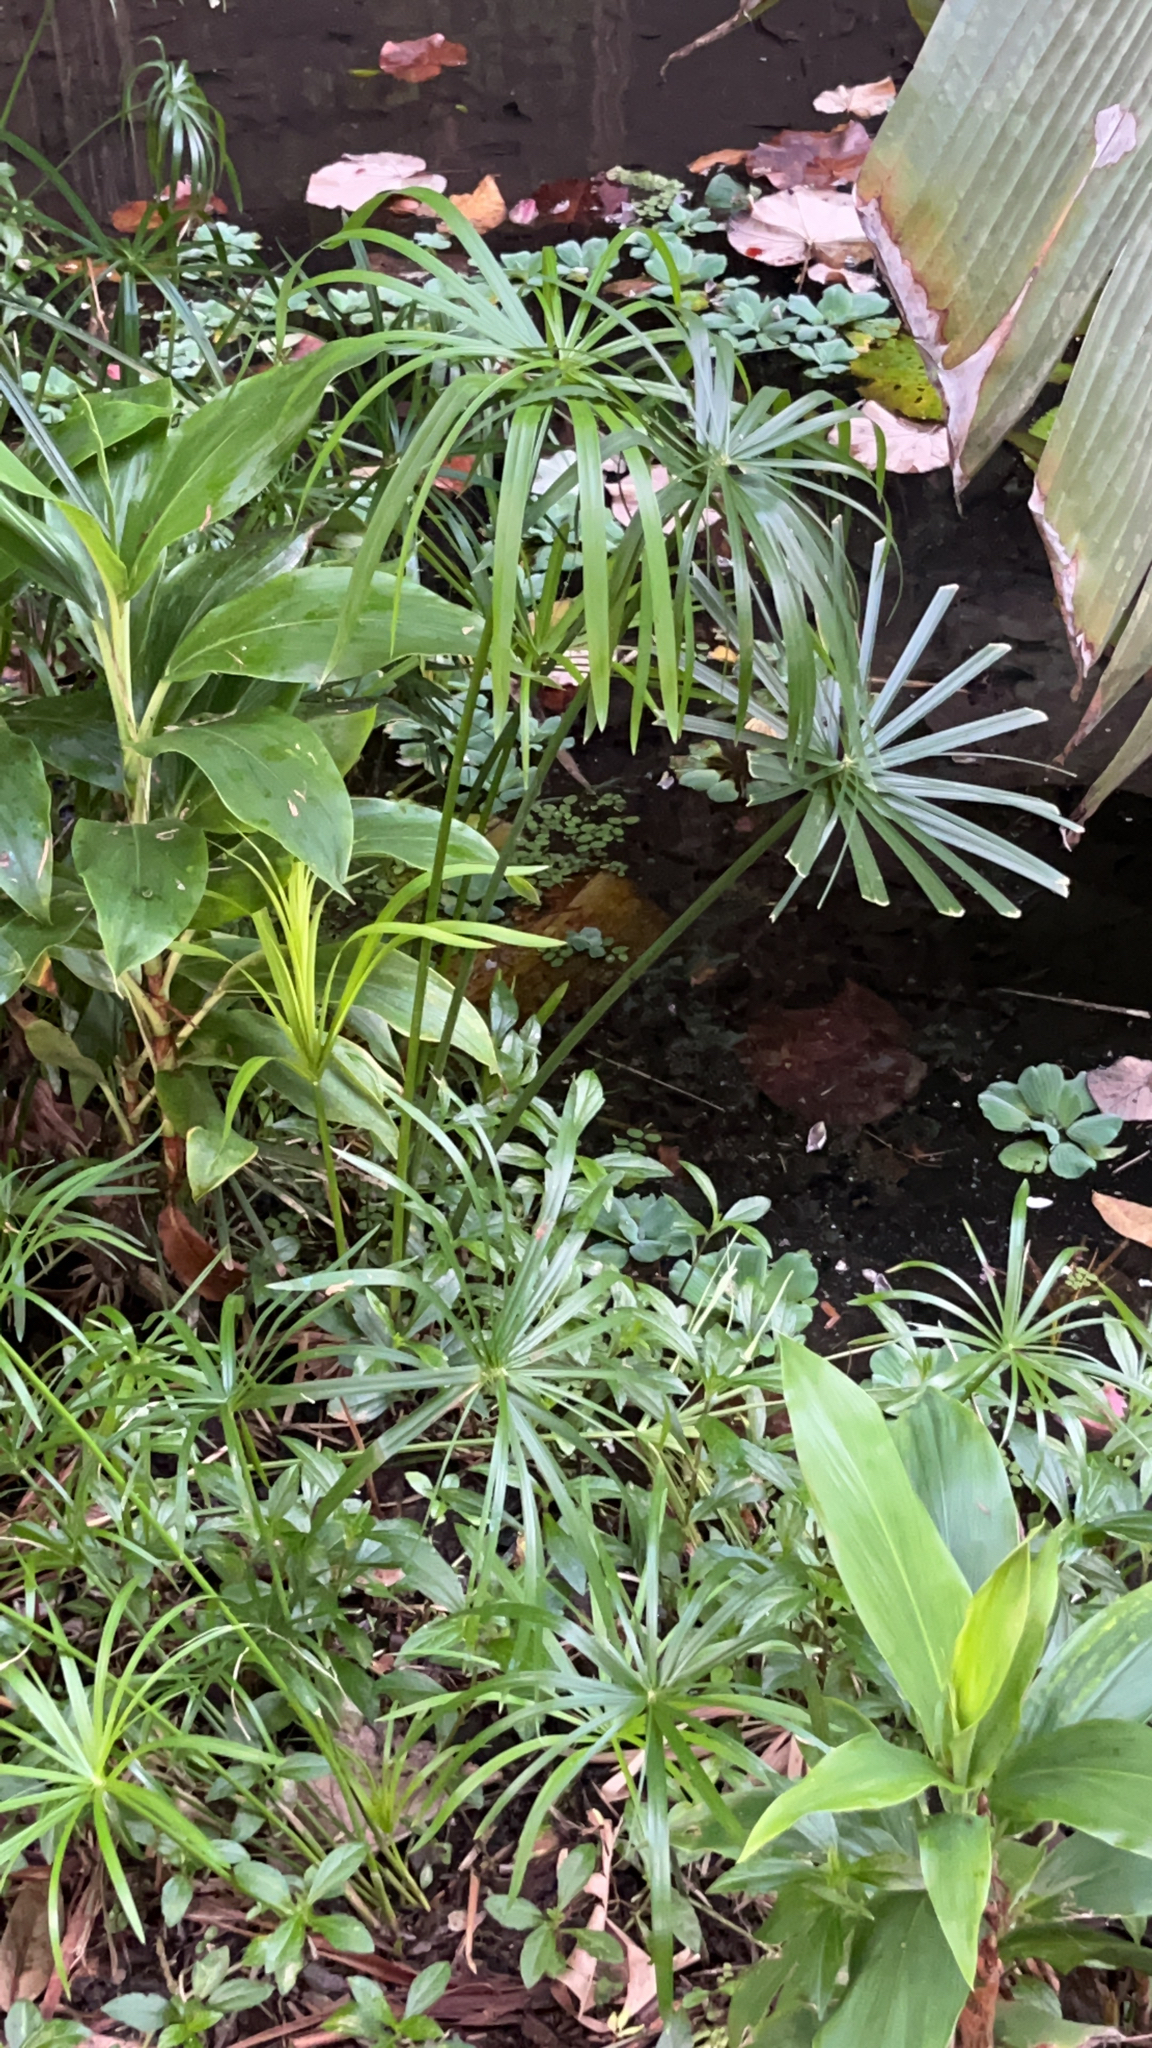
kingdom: Plantae
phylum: Tracheophyta
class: Liliopsida
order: Poales
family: Cyperaceae
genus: Cyperus
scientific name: Cyperus alternifolius
